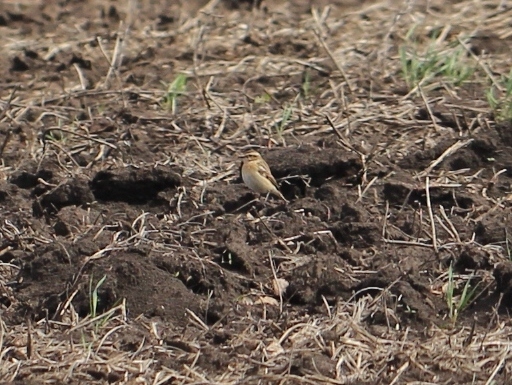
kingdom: Animalia
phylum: Chordata
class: Aves
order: Passeriformes
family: Muscicapidae
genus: Saxicola
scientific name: Saxicola rubetra
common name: Whinchat
